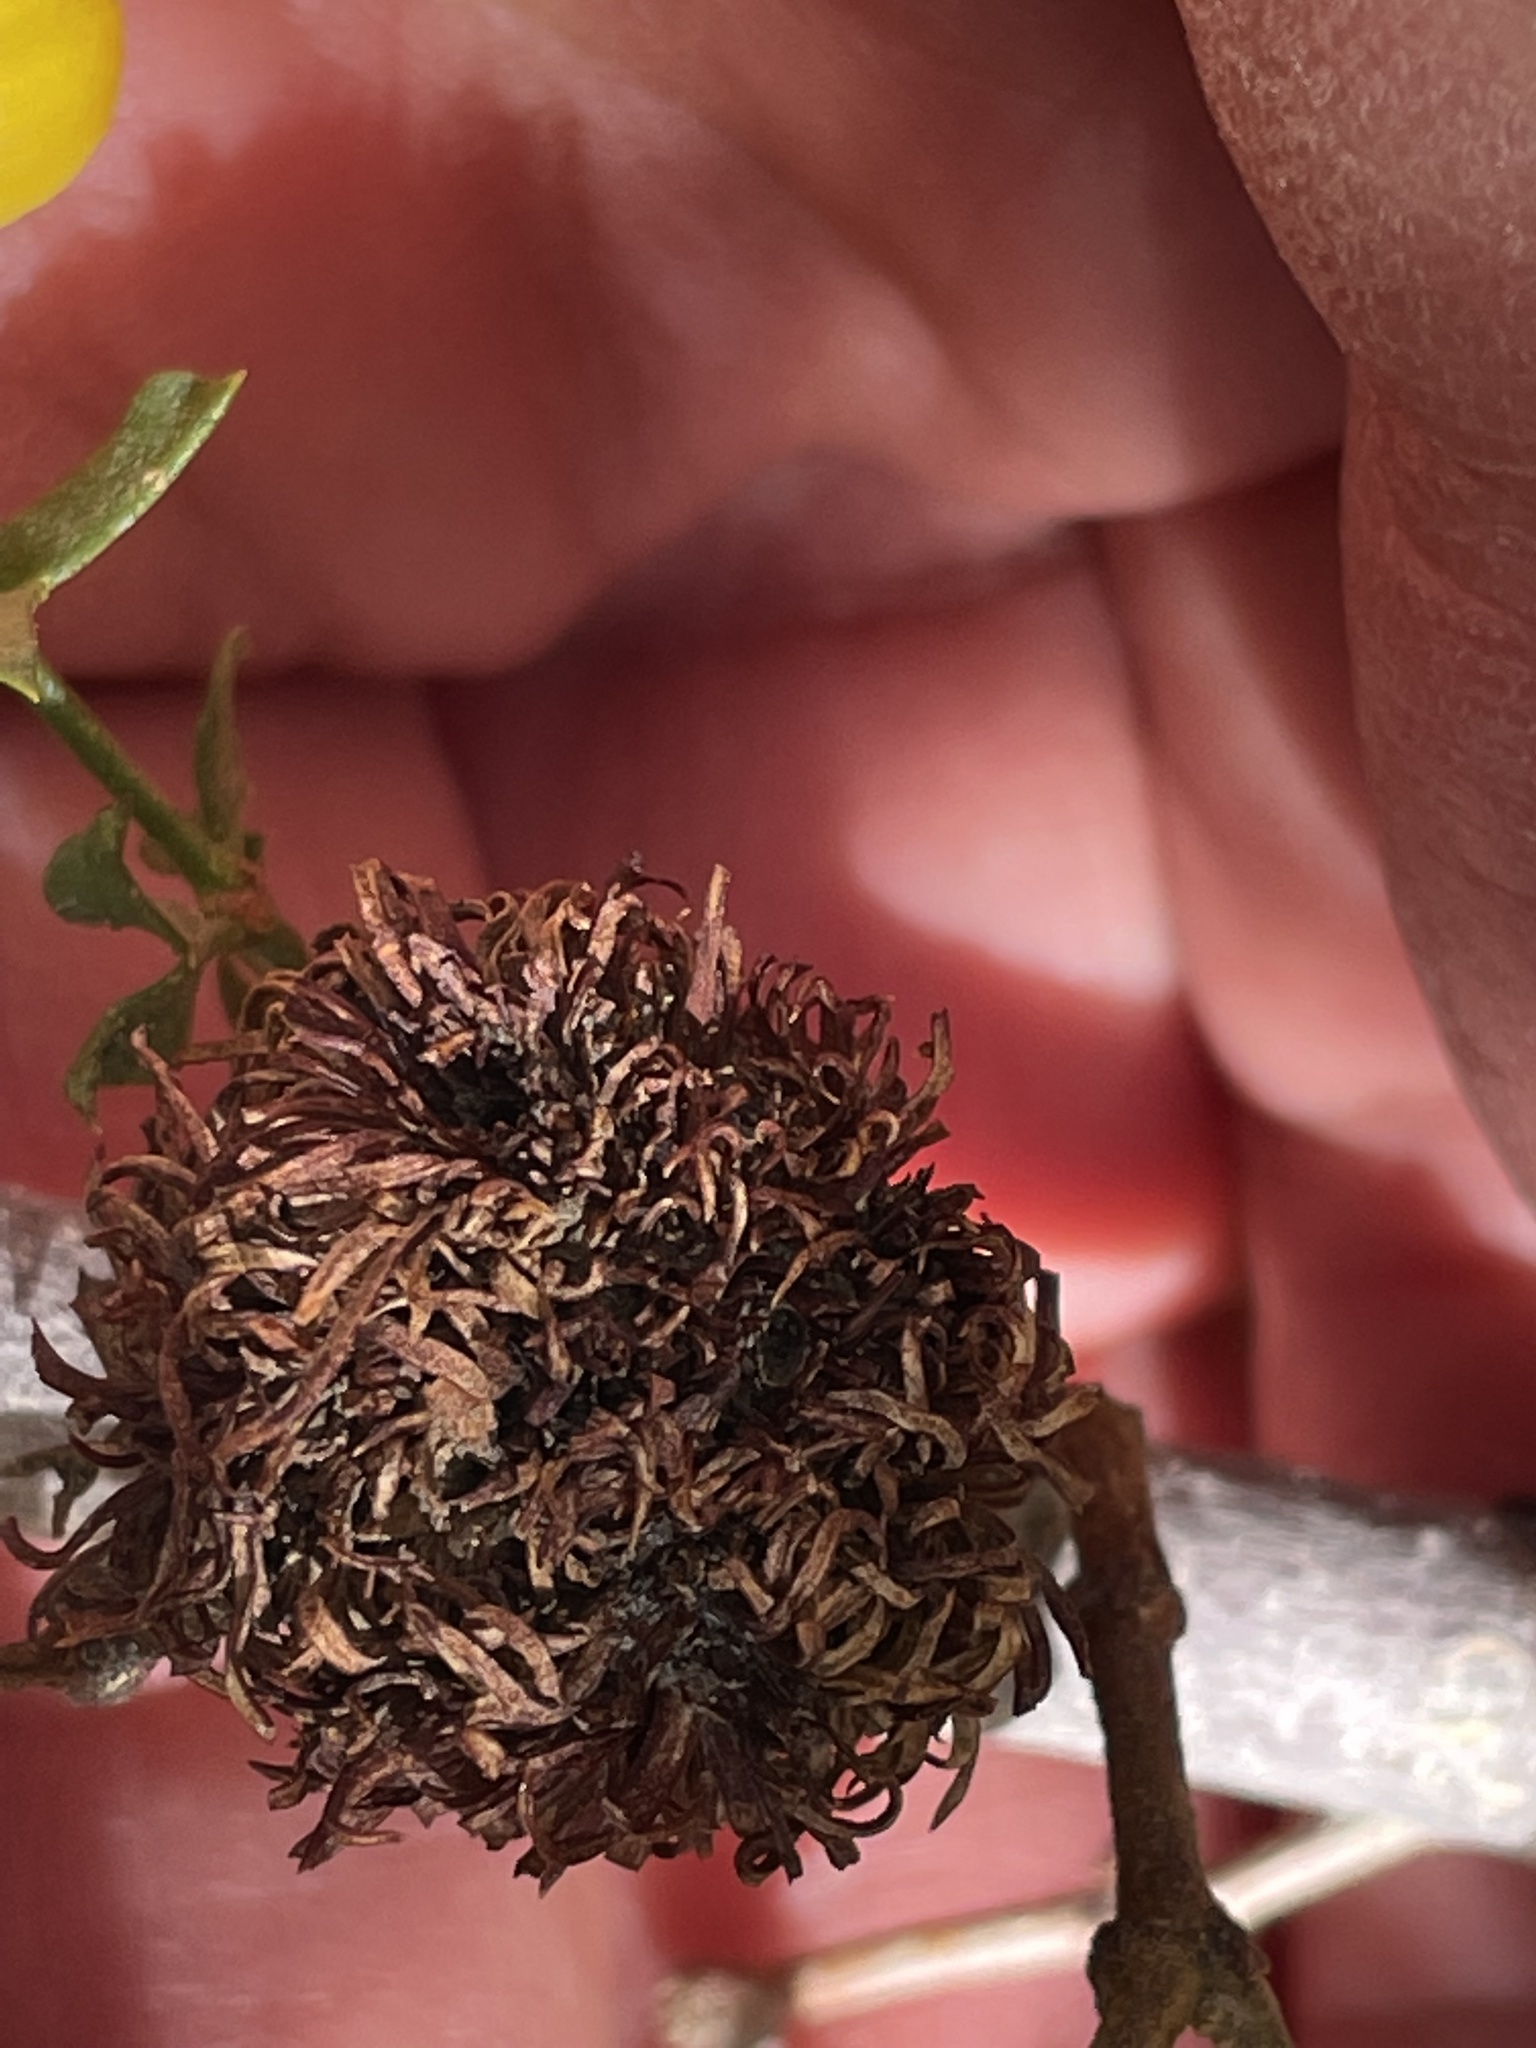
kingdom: Animalia
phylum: Arthropoda
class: Insecta
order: Diptera
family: Cecidomyiidae
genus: Asphondylia
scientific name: Asphondylia auripila
